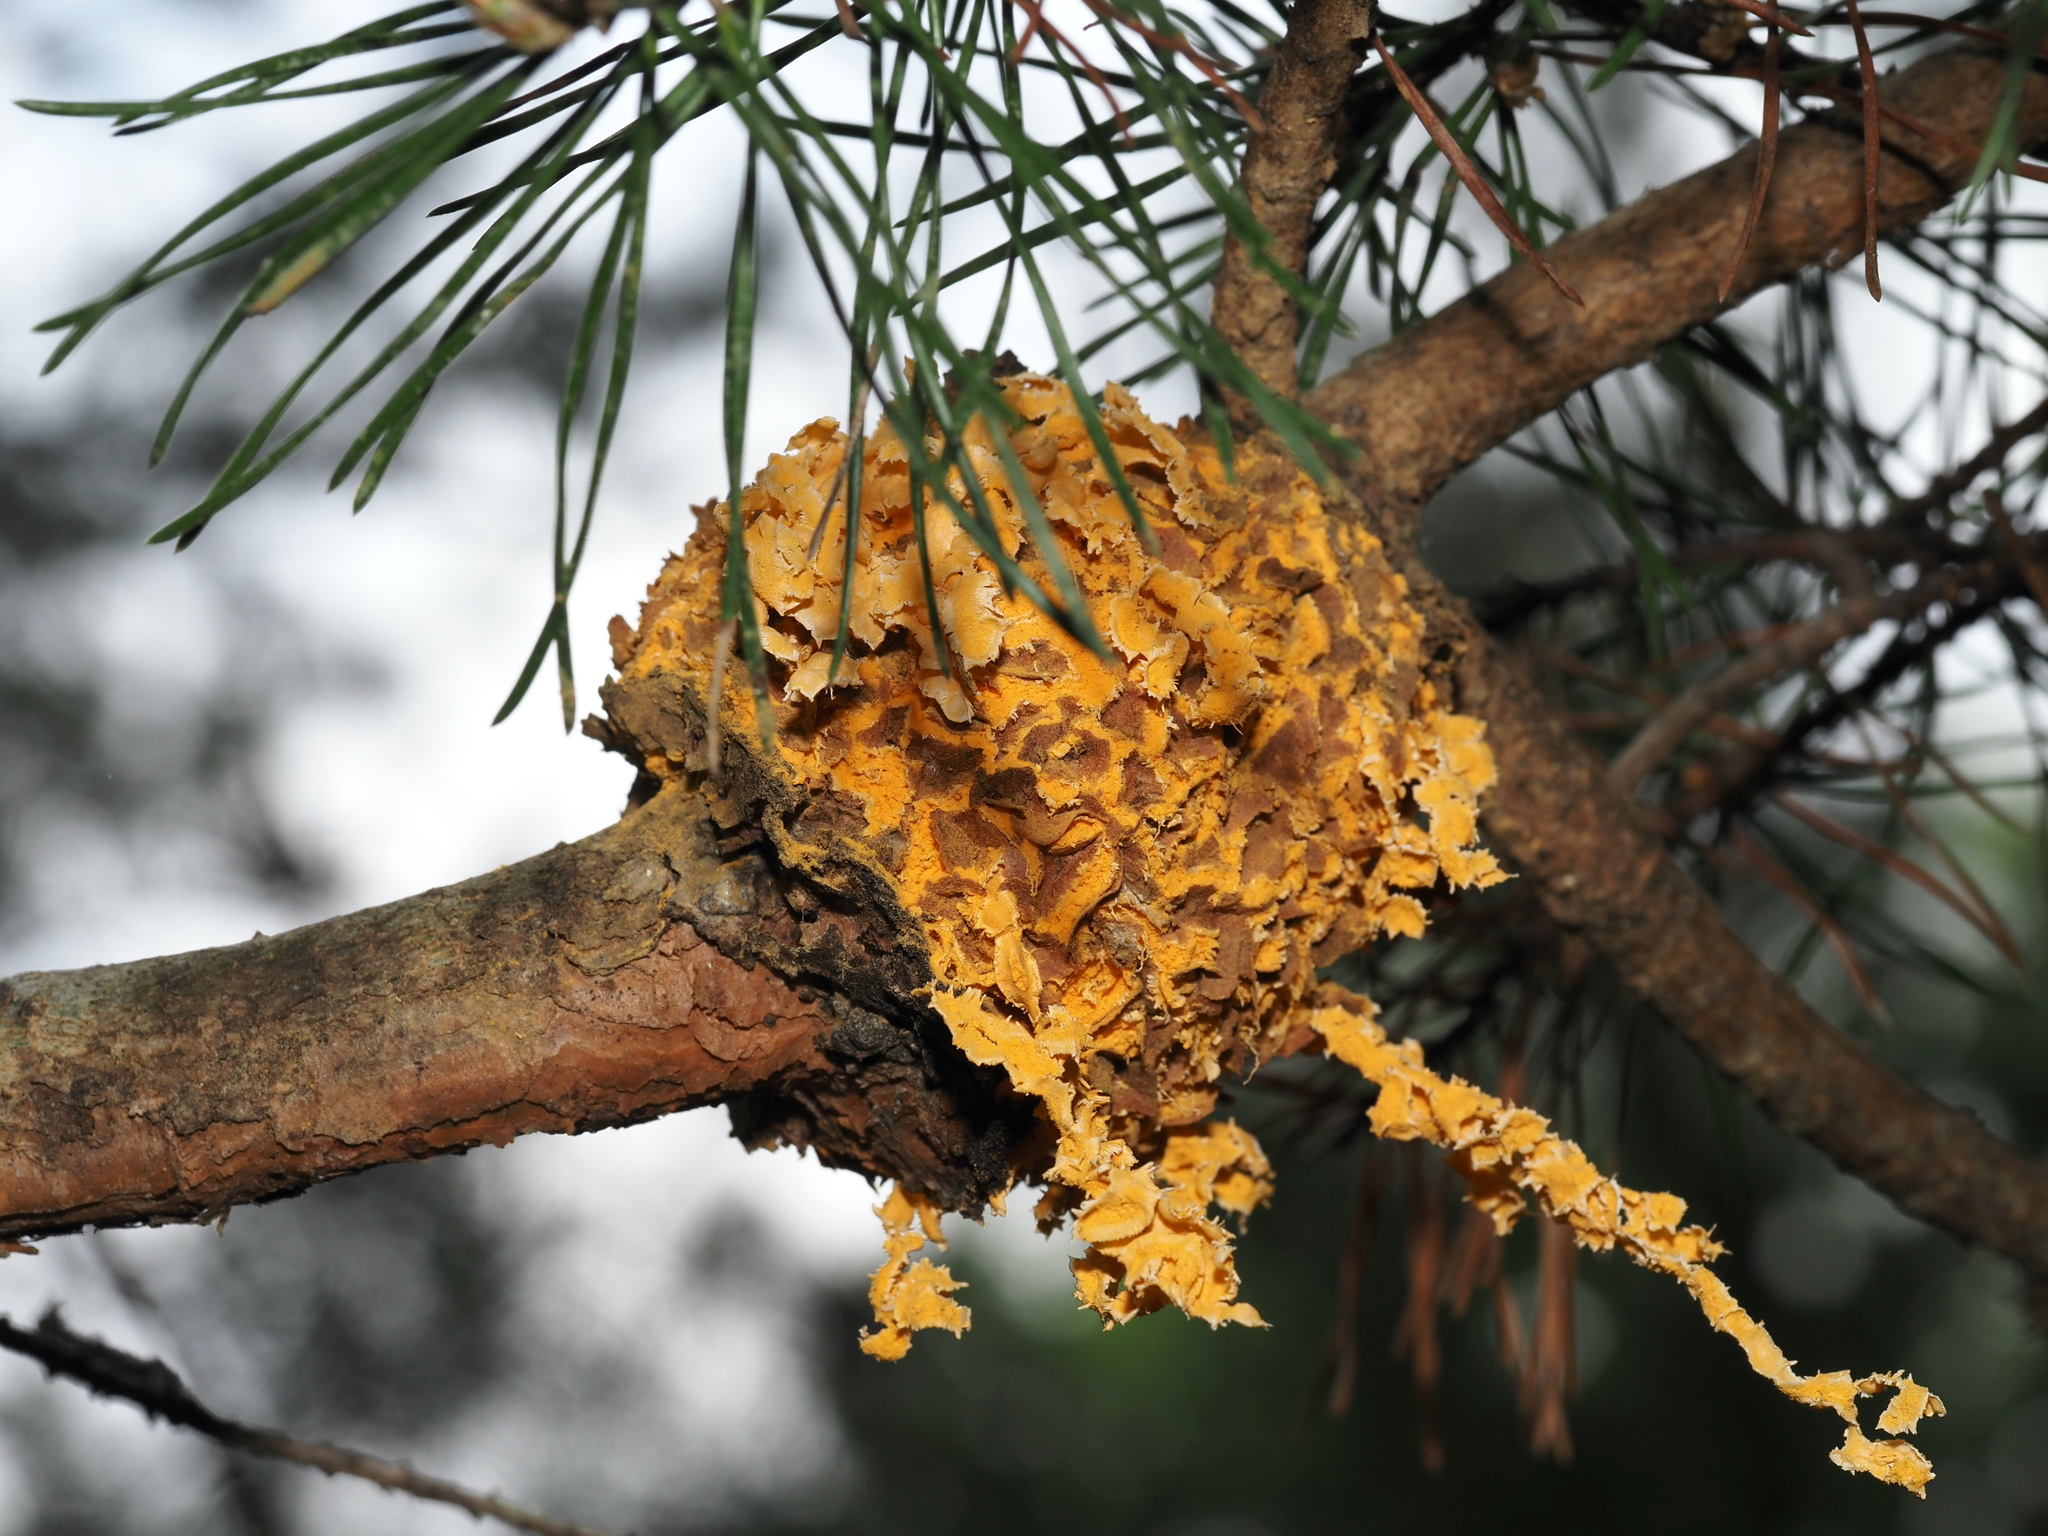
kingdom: Fungi
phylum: Basidiomycota
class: Pucciniomycetes
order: Pucciniales
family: Cronartiaceae
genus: Cronartium
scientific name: Cronartium quercuum
